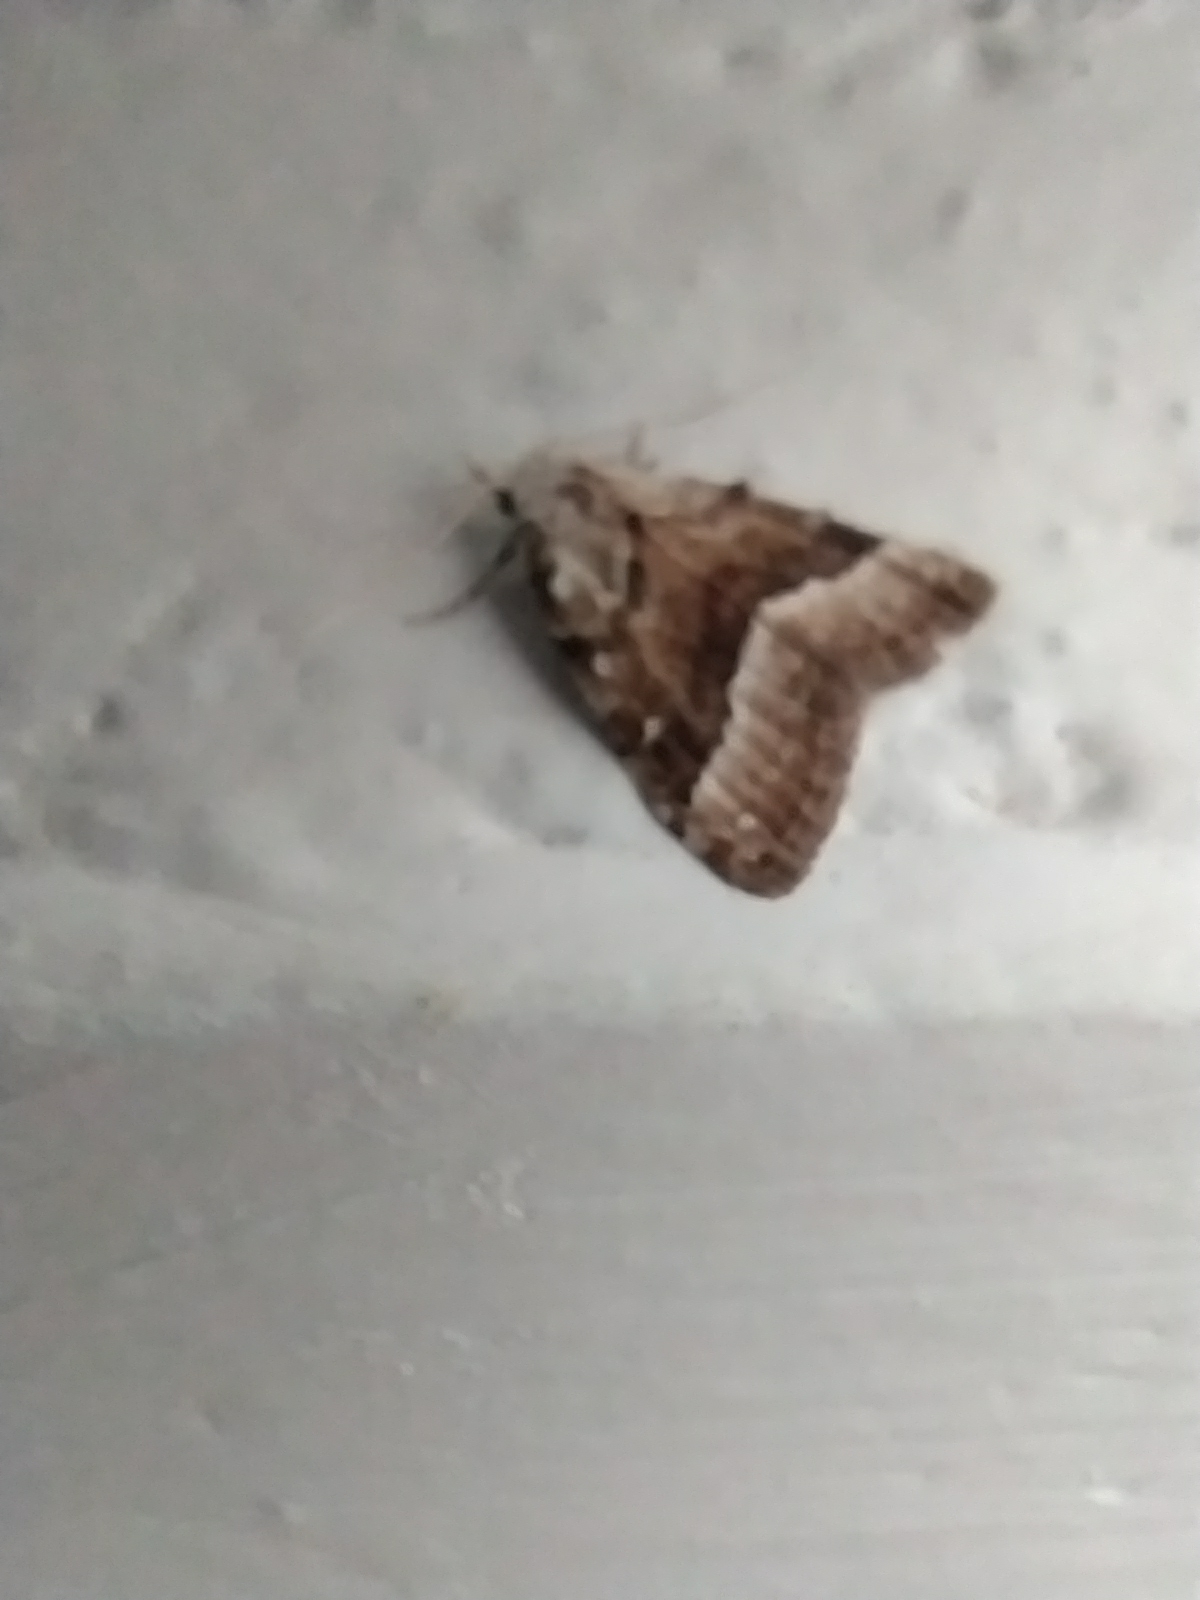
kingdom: Animalia
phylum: Arthropoda
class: Insecta
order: Lepidoptera
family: Nolidae
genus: Nola
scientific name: Nola aerugula
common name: Scarce black arches
